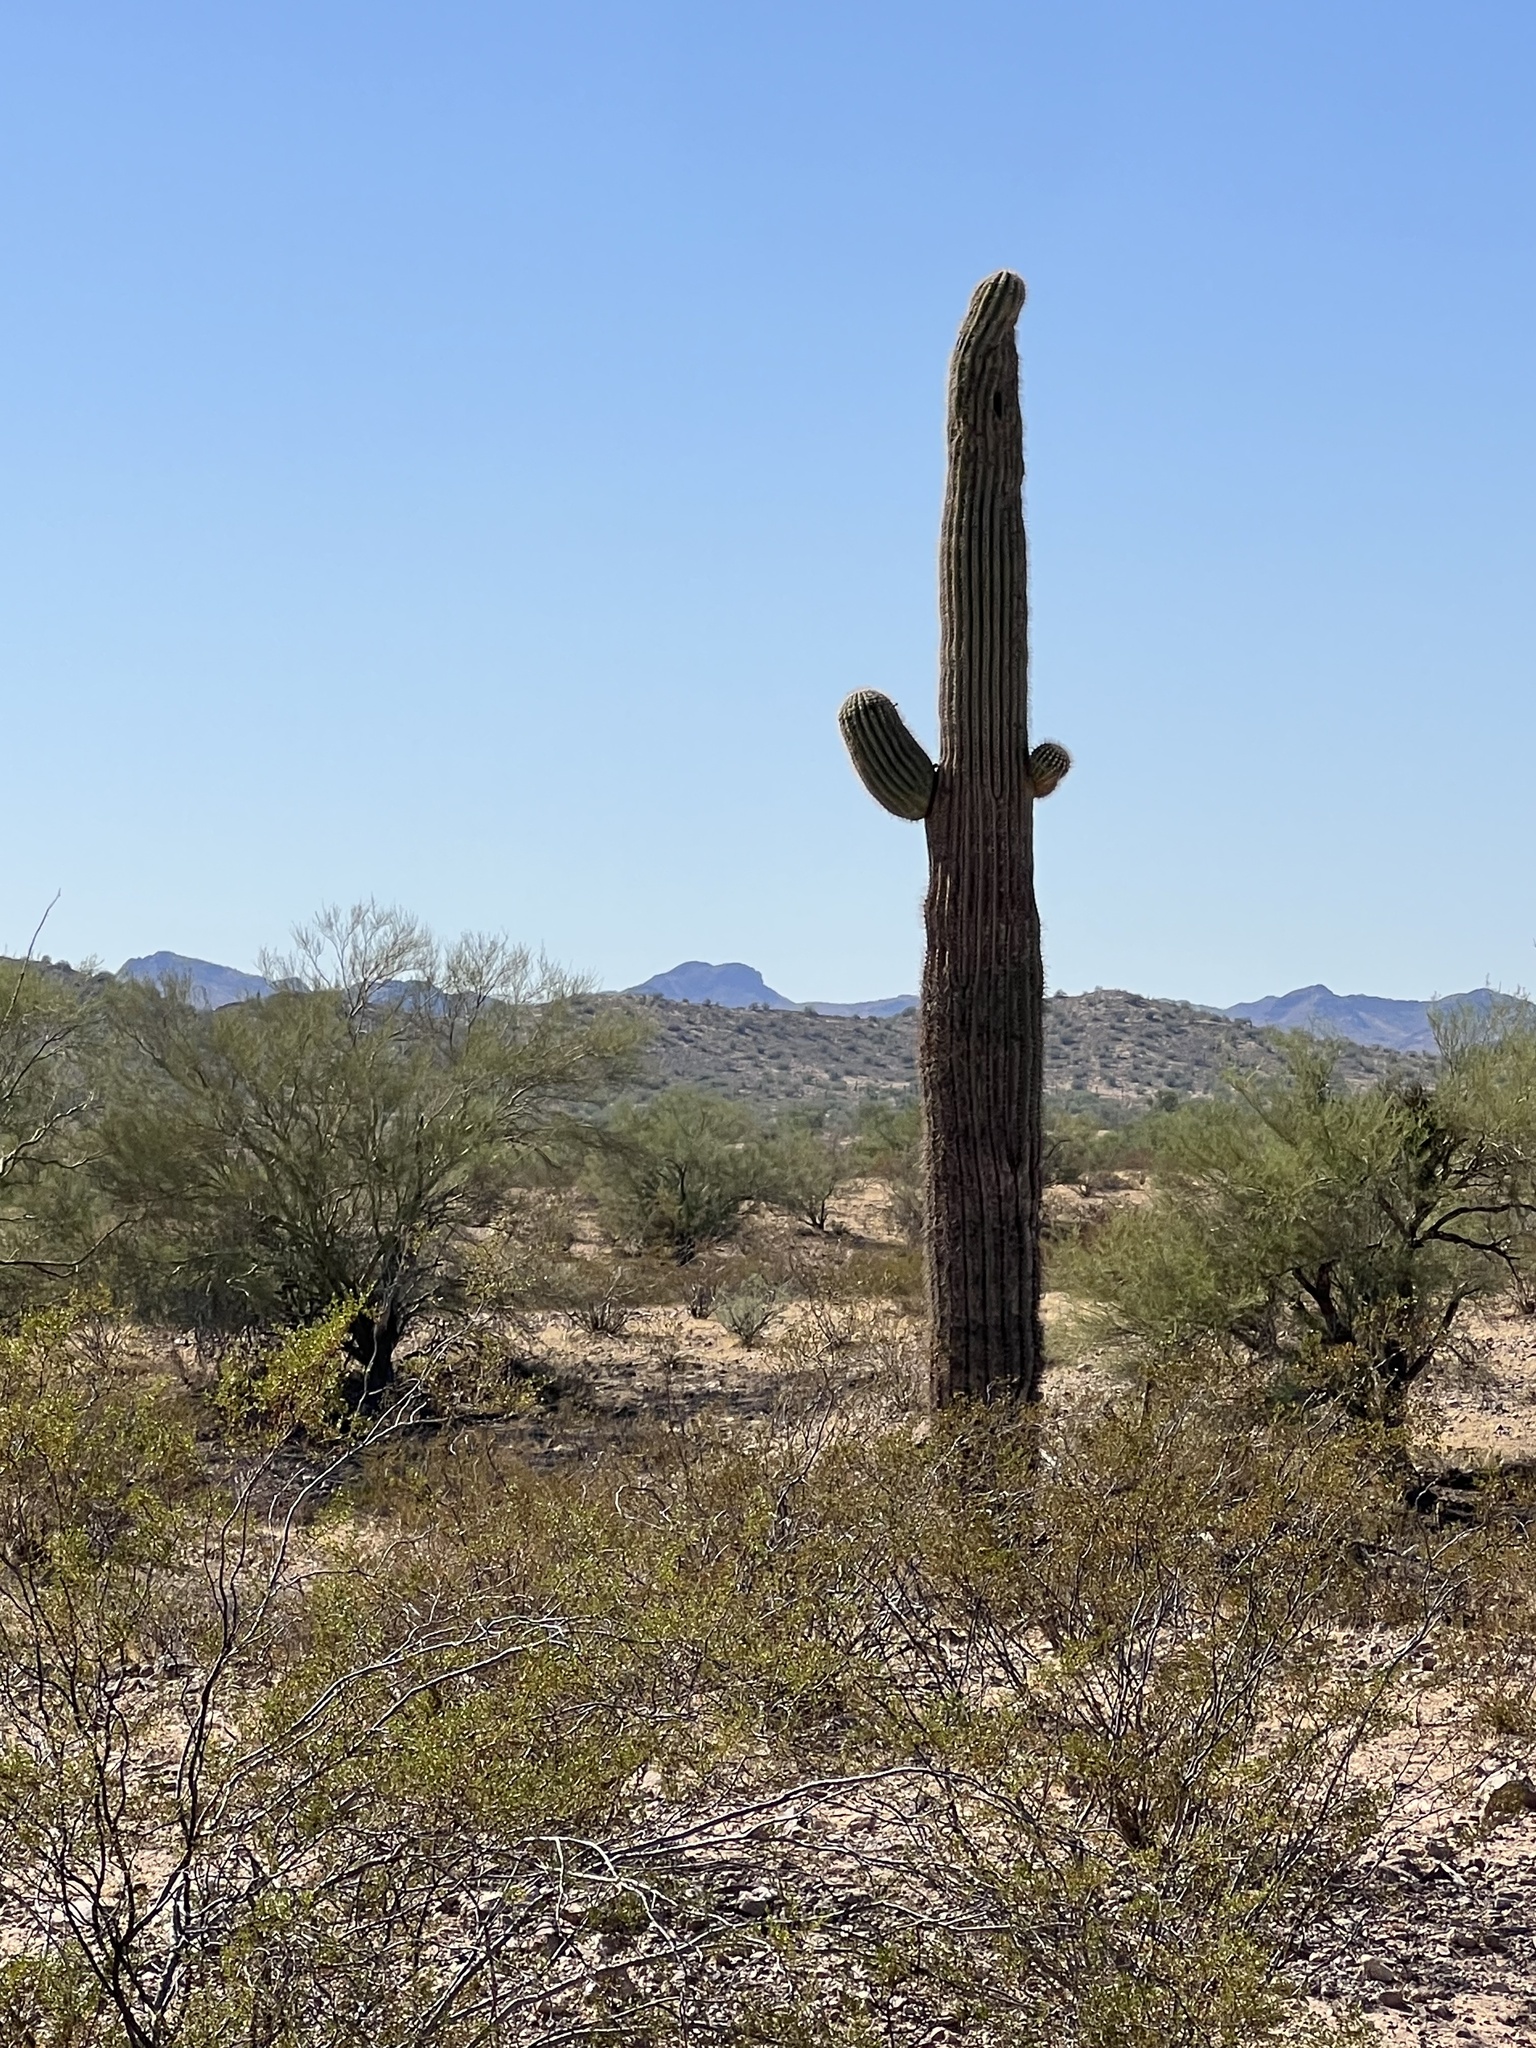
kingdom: Plantae
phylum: Tracheophyta
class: Magnoliopsida
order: Caryophyllales
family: Cactaceae
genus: Carnegiea
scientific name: Carnegiea gigantea
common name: Saguaro
